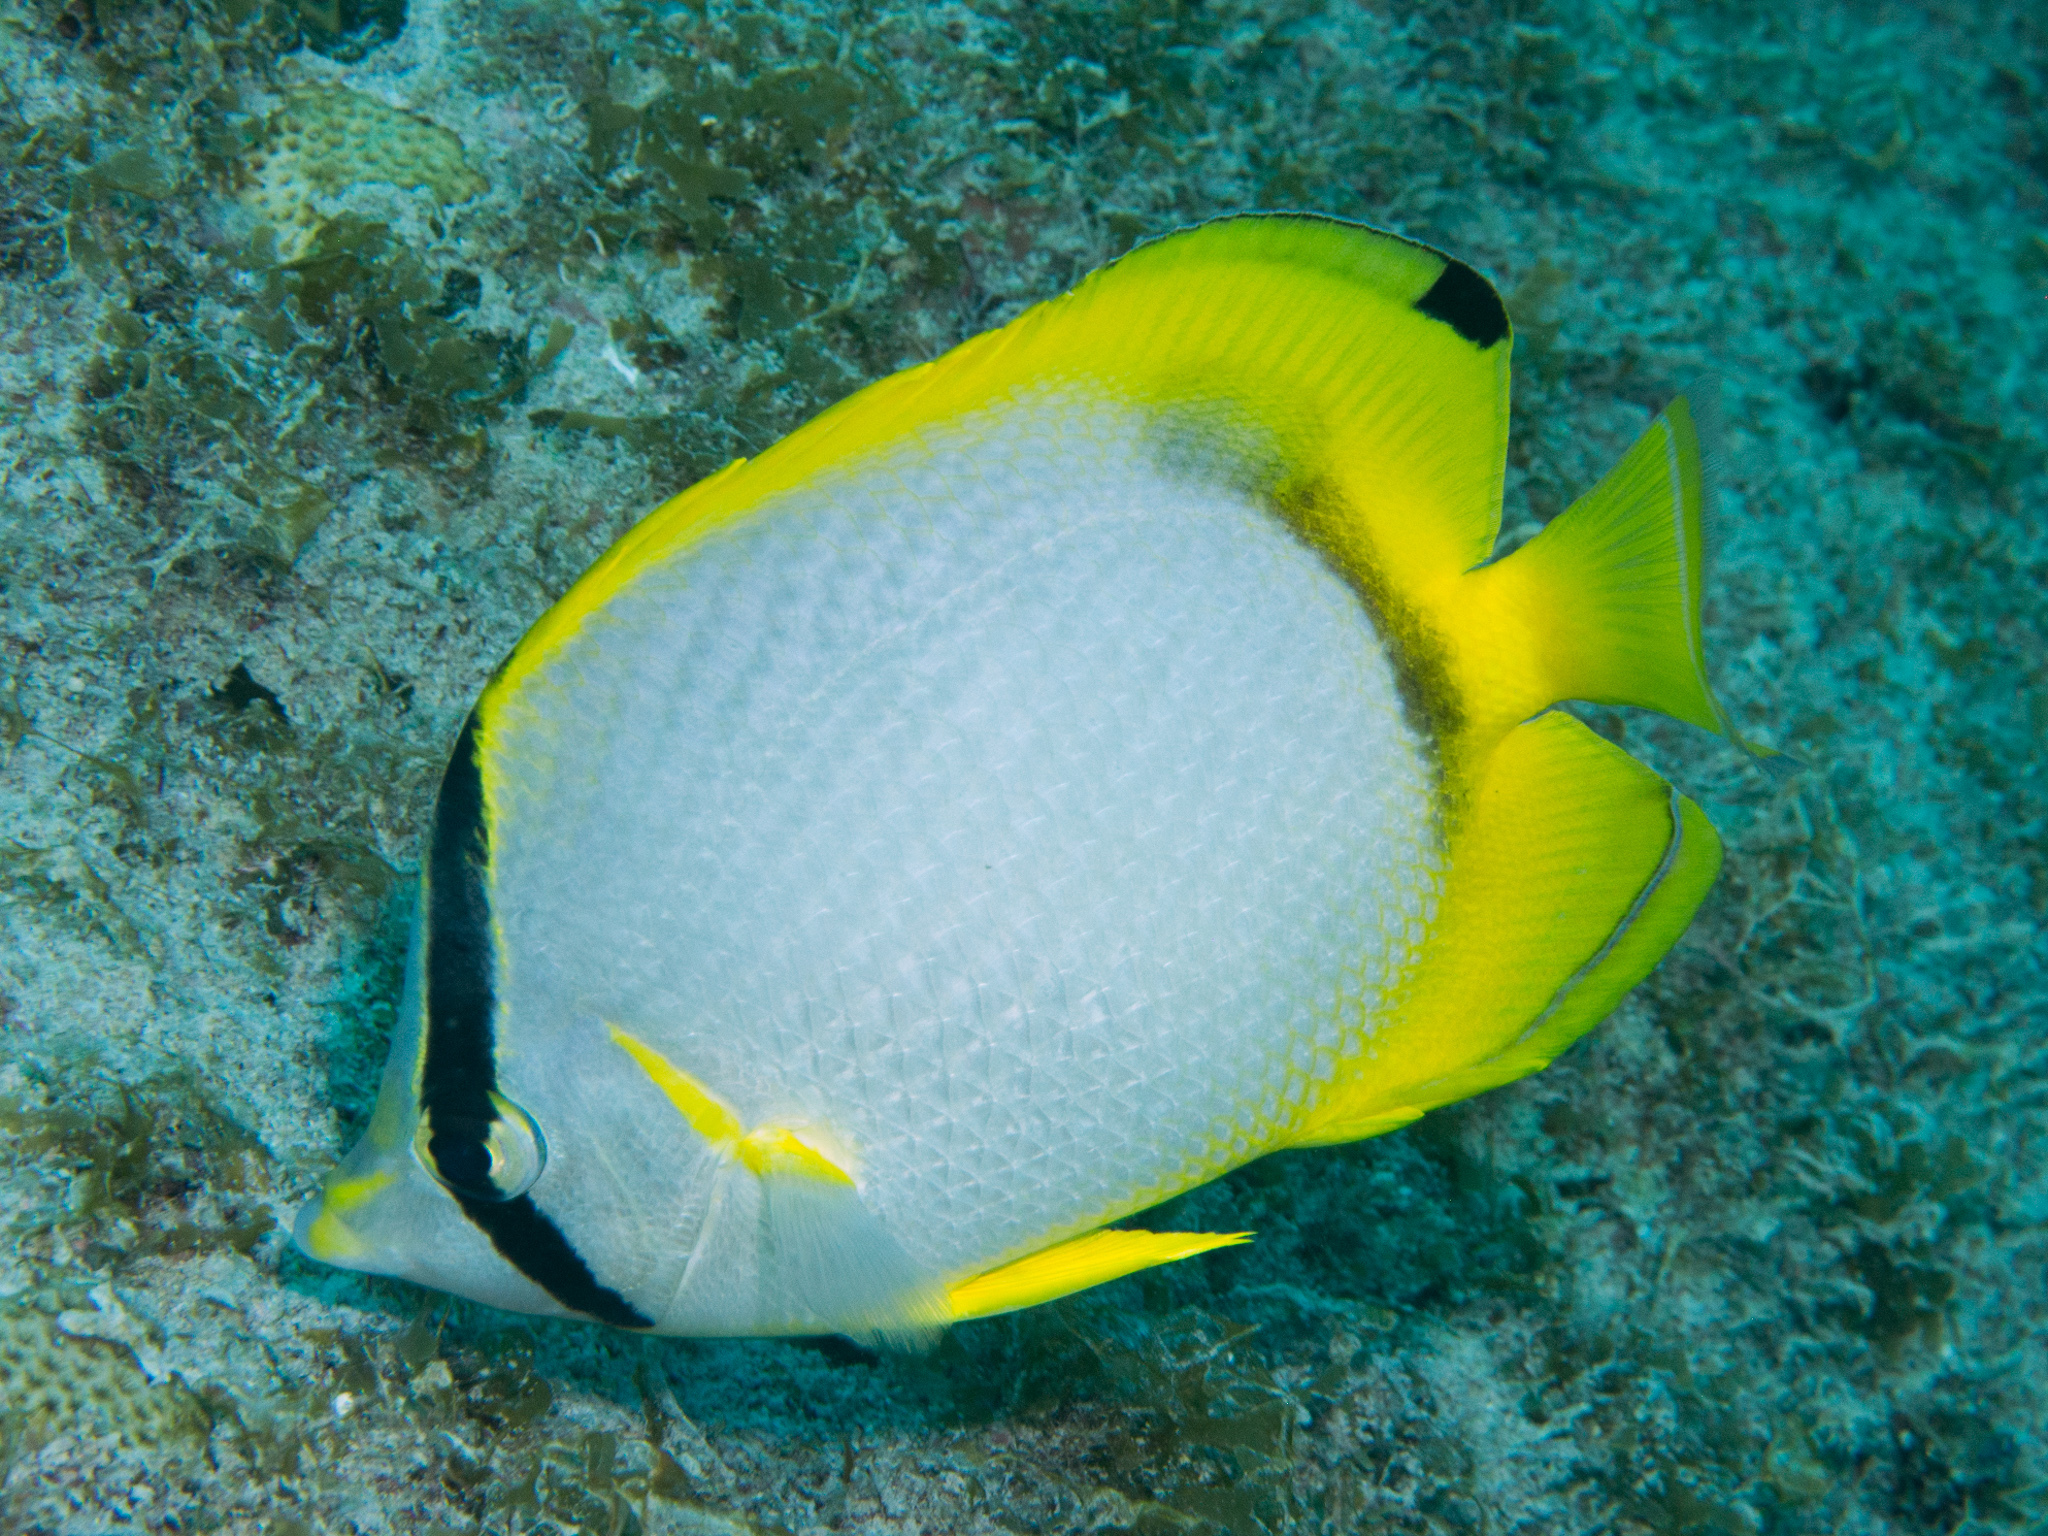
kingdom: Animalia
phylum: Chordata
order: Perciformes
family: Chaetodontidae
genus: Chaetodon
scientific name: Chaetodon ocellatus
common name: Spotfin butterflyfish
